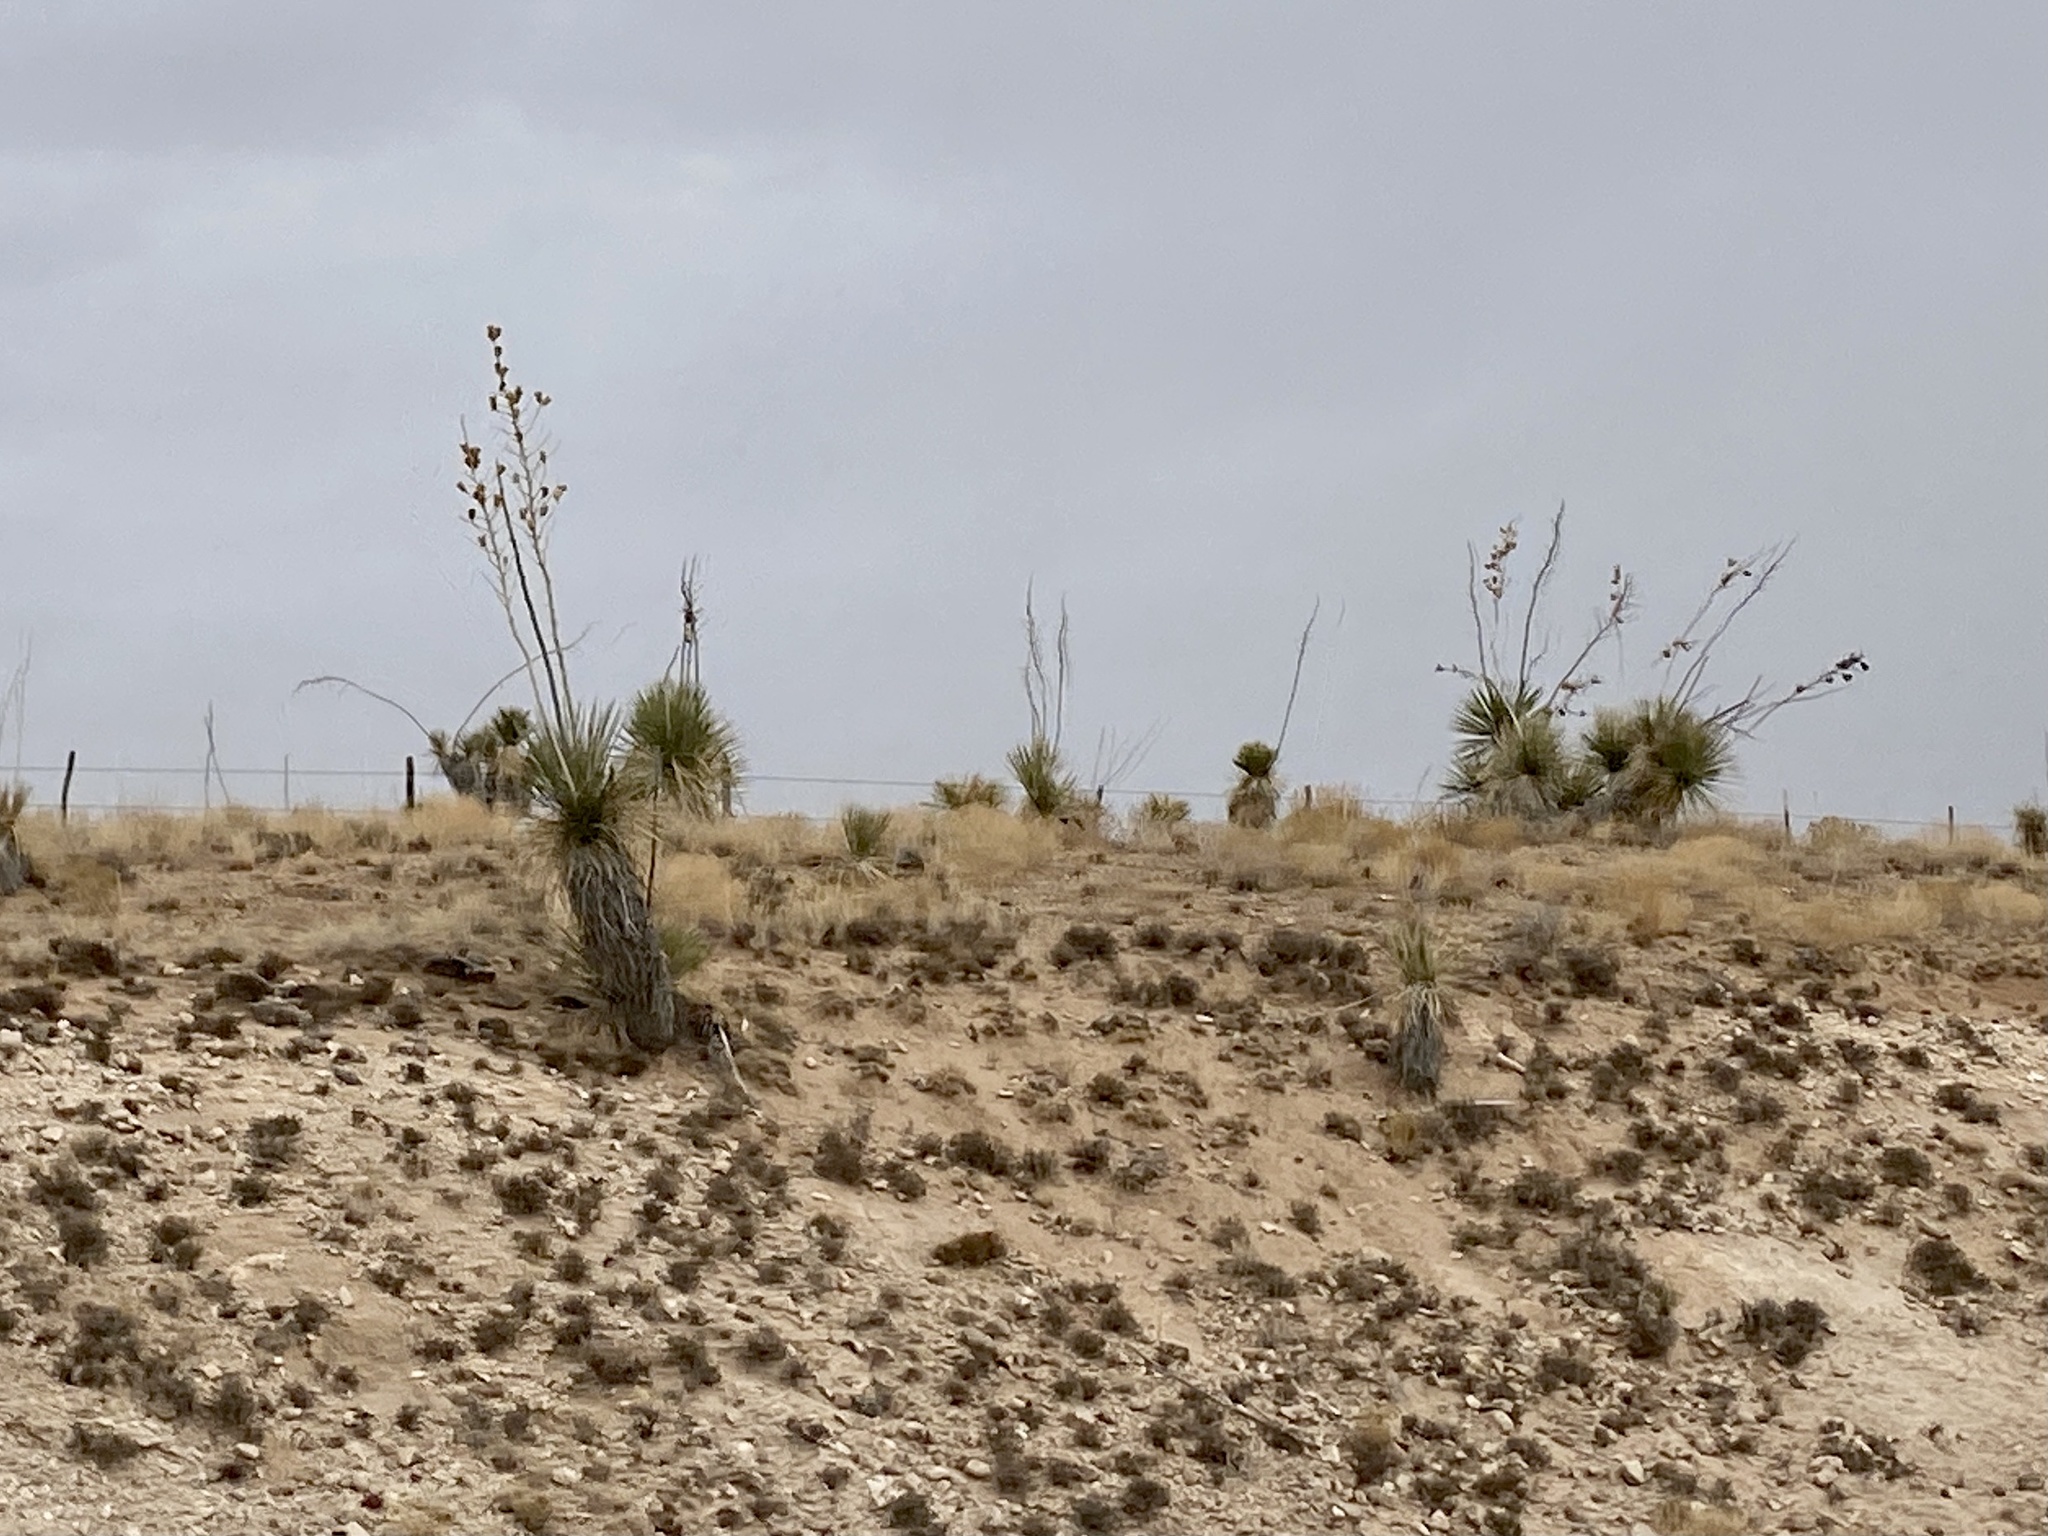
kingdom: Plantae
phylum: Tracheophyta
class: Liliopsida
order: Asparagales
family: Asparagaceae
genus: Yucca
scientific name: Yucca elata
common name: Palmella
